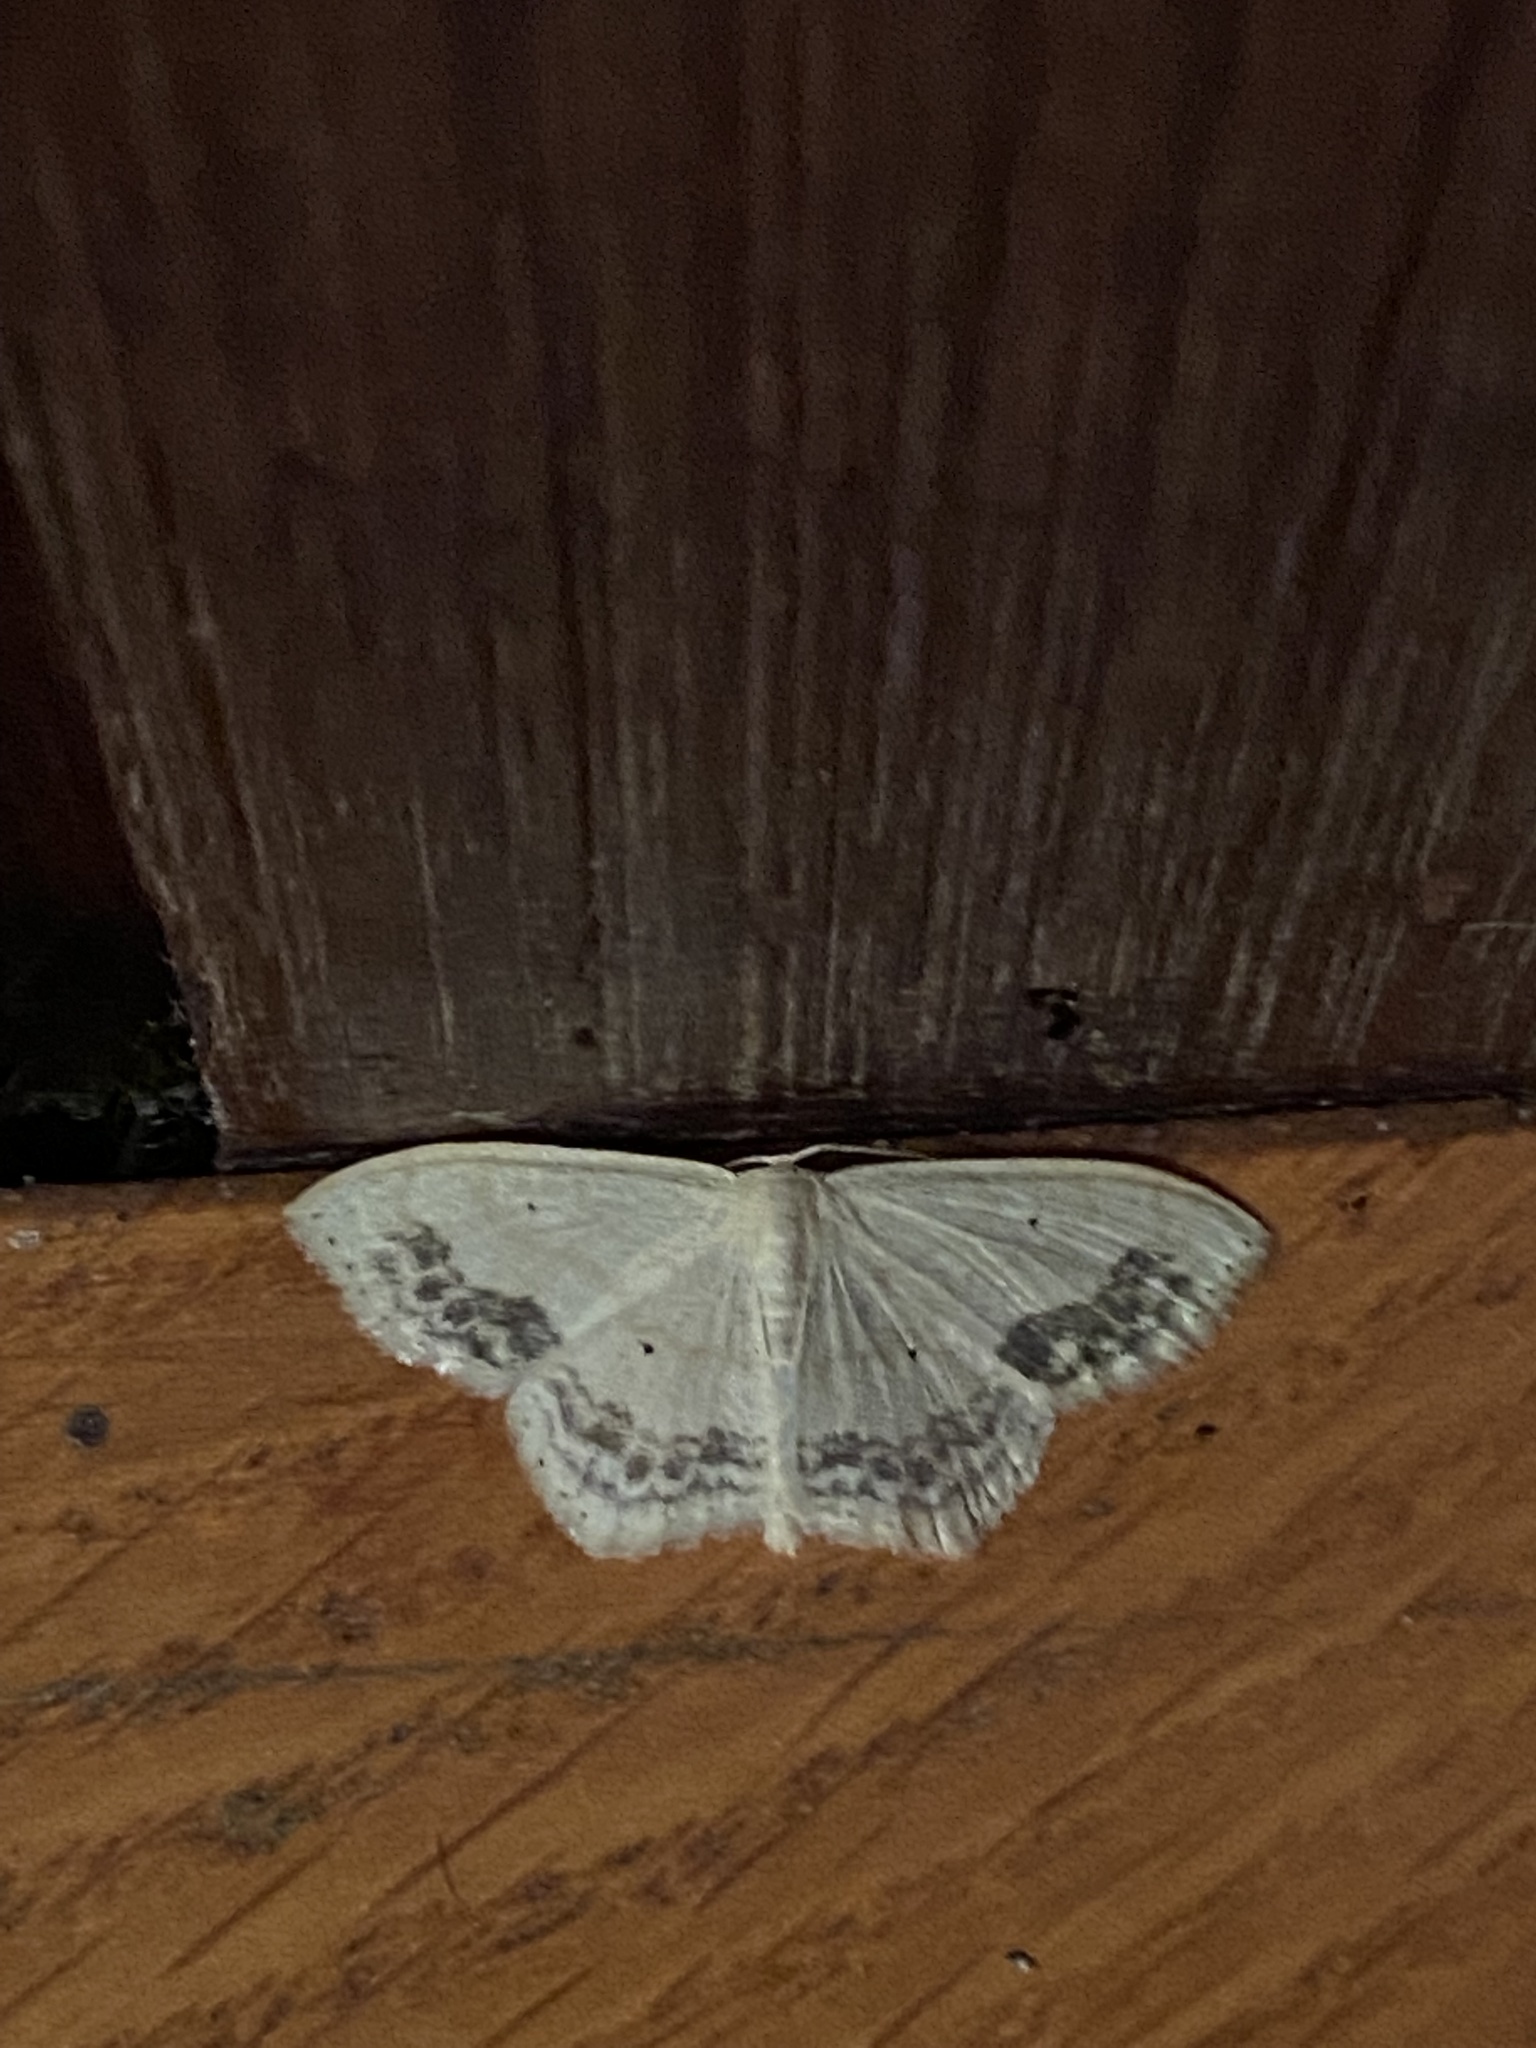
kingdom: Animalia
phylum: Arthropoda
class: Insecta
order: Lepidoptera
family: Geometridae
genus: Scopula
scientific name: Scopula limboundata
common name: Large lace border
